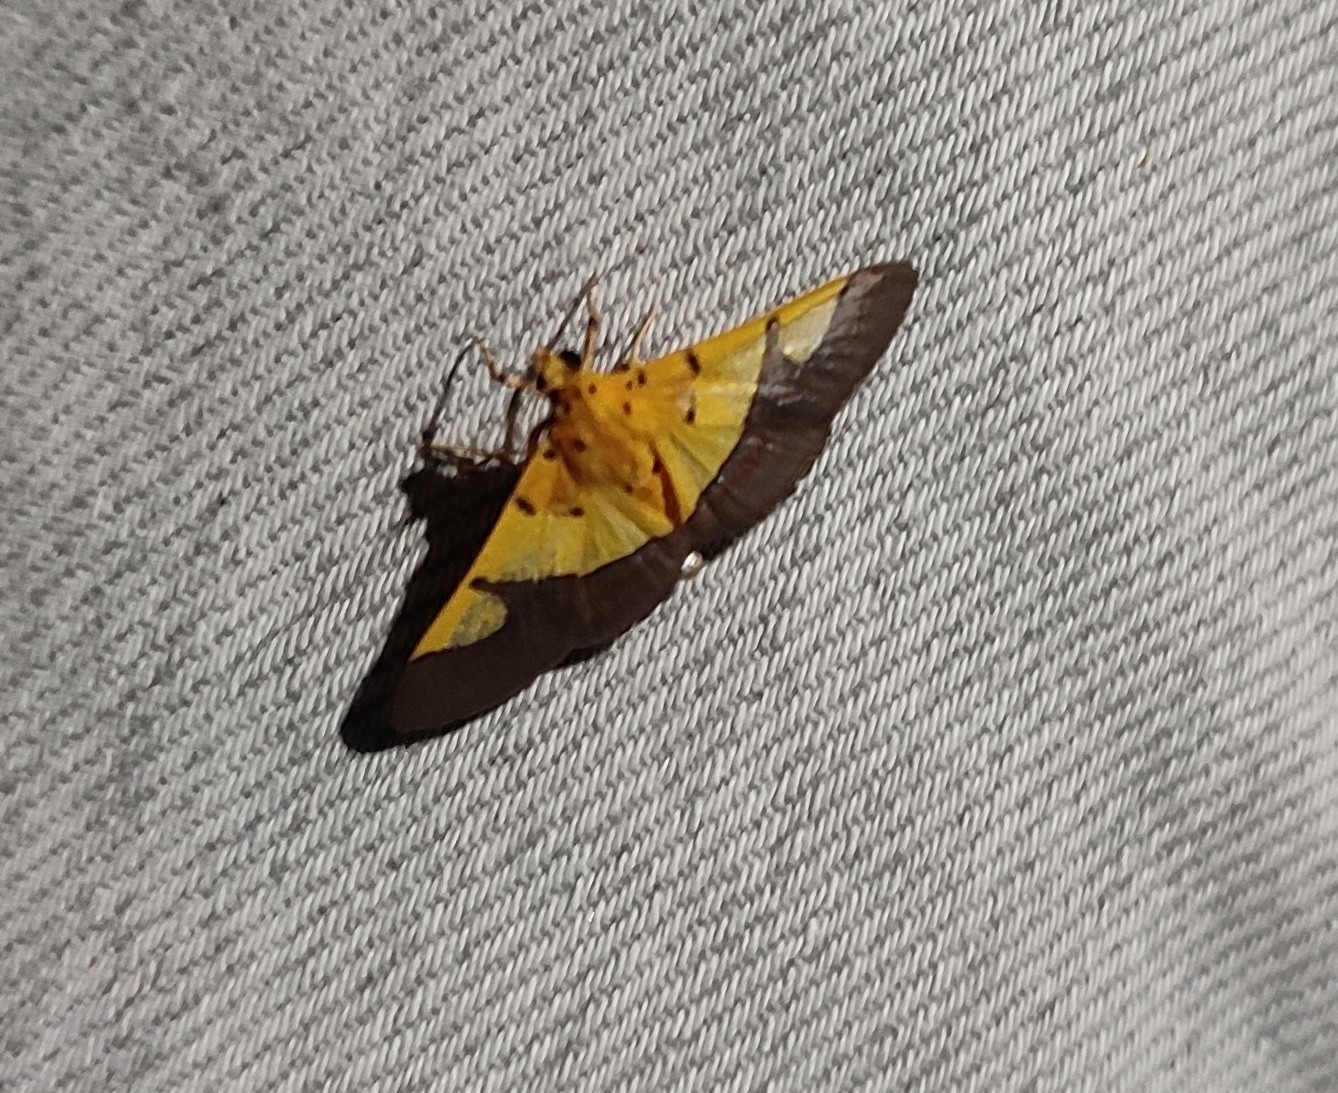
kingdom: Animalia
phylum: Arthropoda
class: Insecta
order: Lepidoptera
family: Crambidae
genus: Botyodes
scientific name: Botyodes
